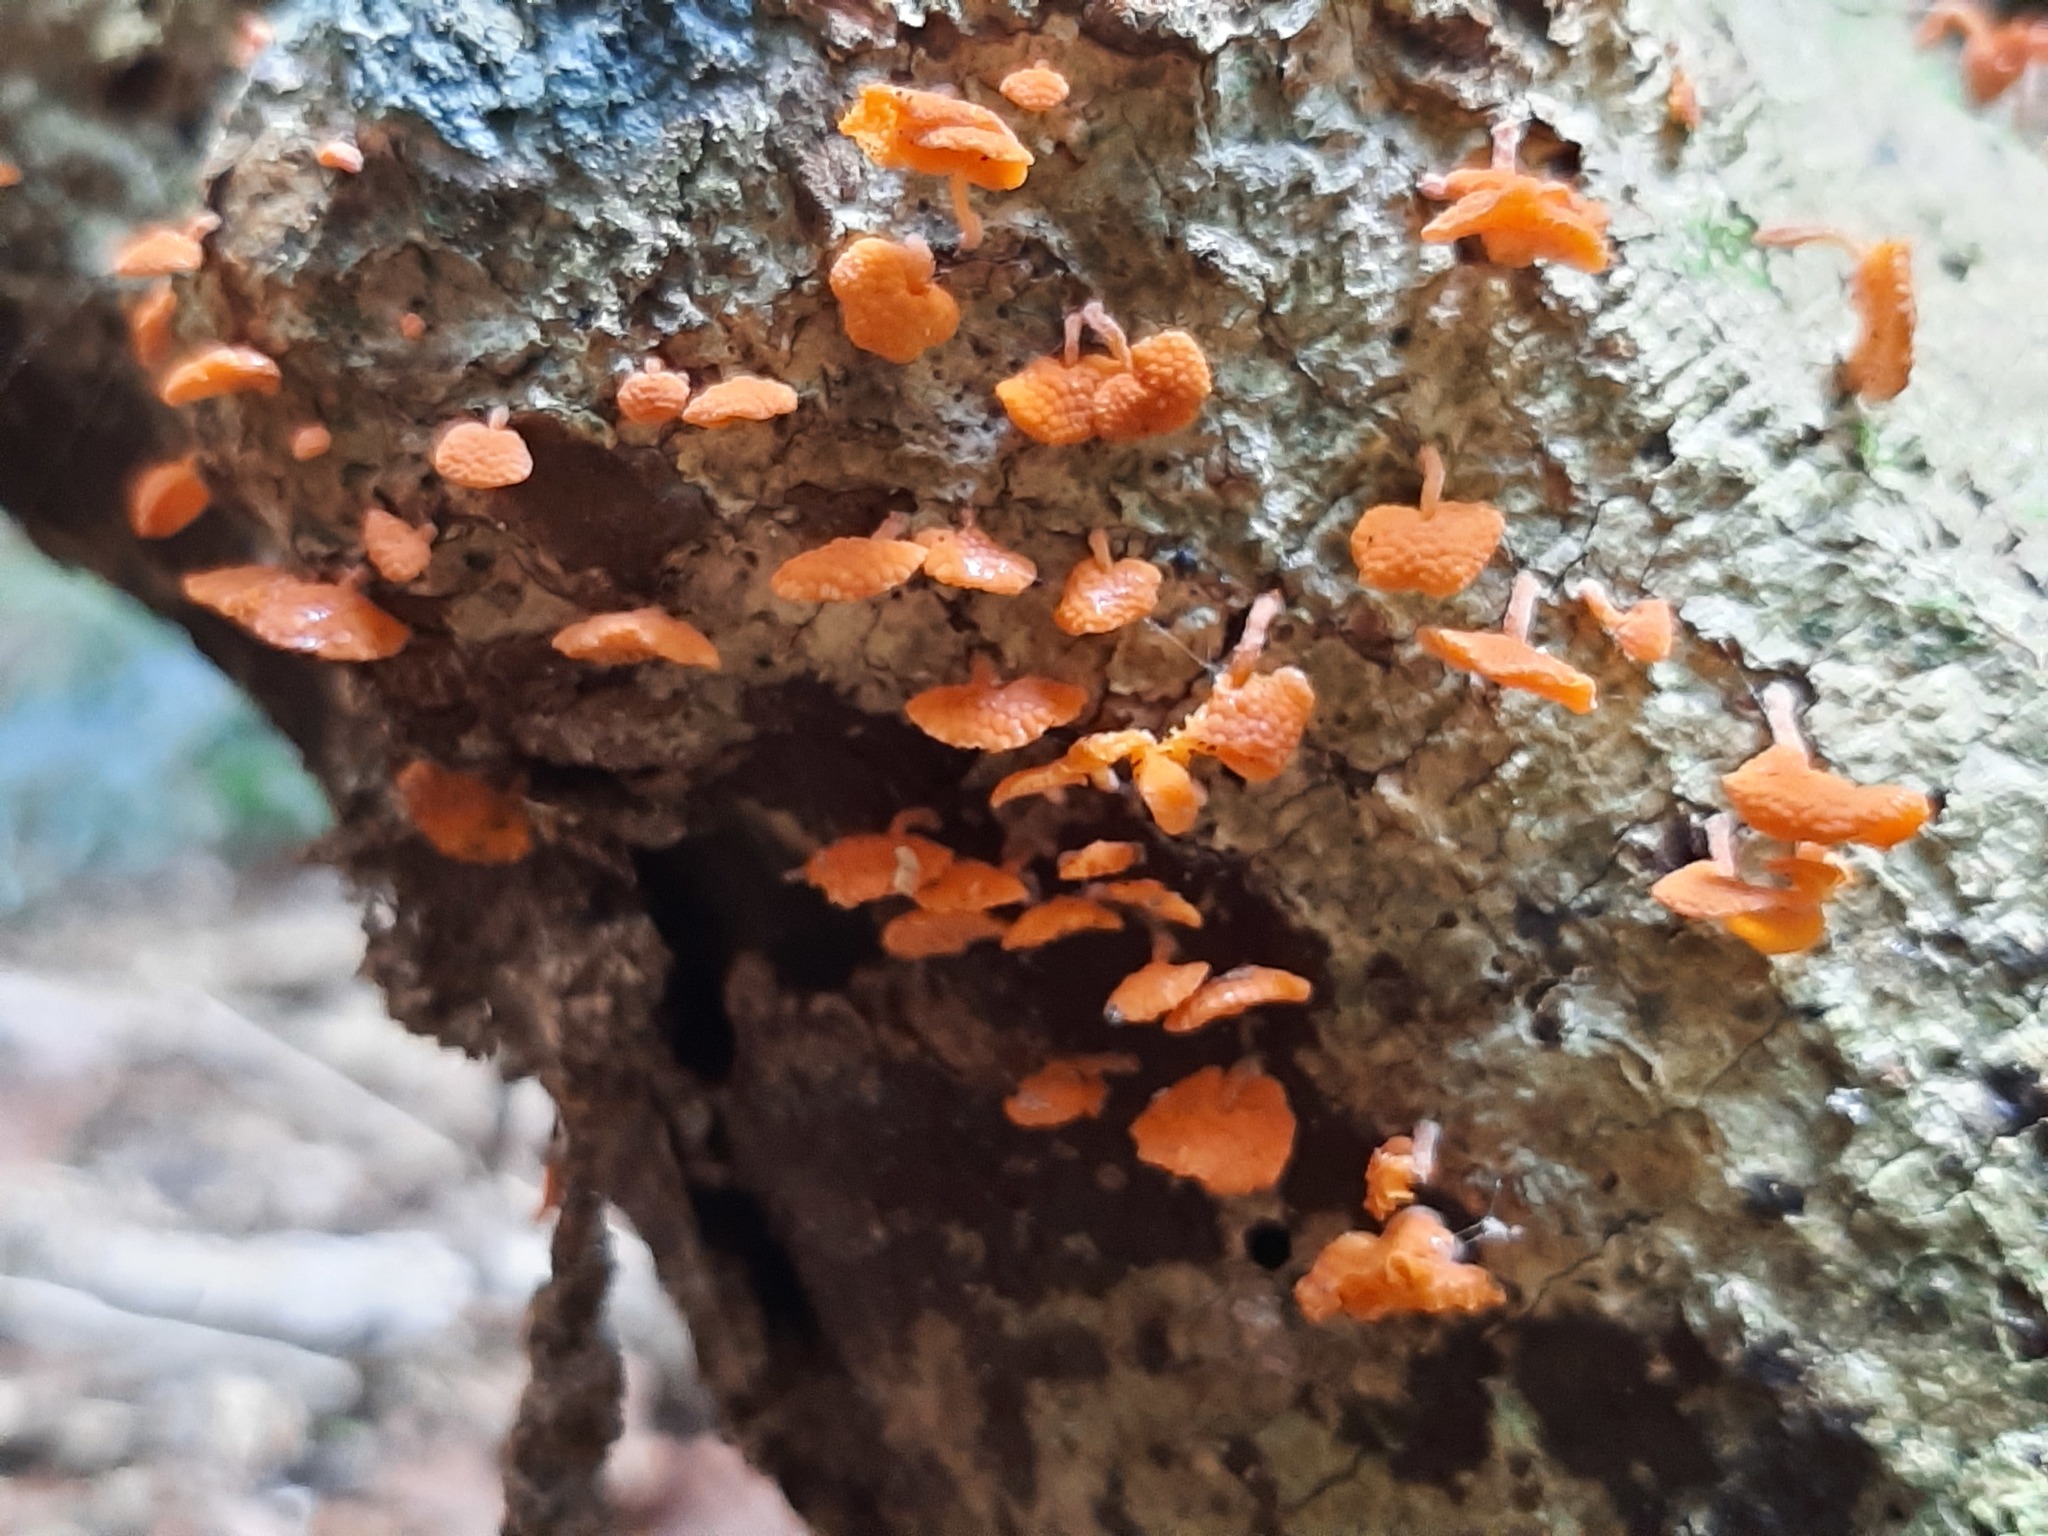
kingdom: Fungi
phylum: Basidiomycota
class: Agaricomycetes
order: Agaricales
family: Mycenaceae
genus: Favolaschia
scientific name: Favolaschia claudopus
